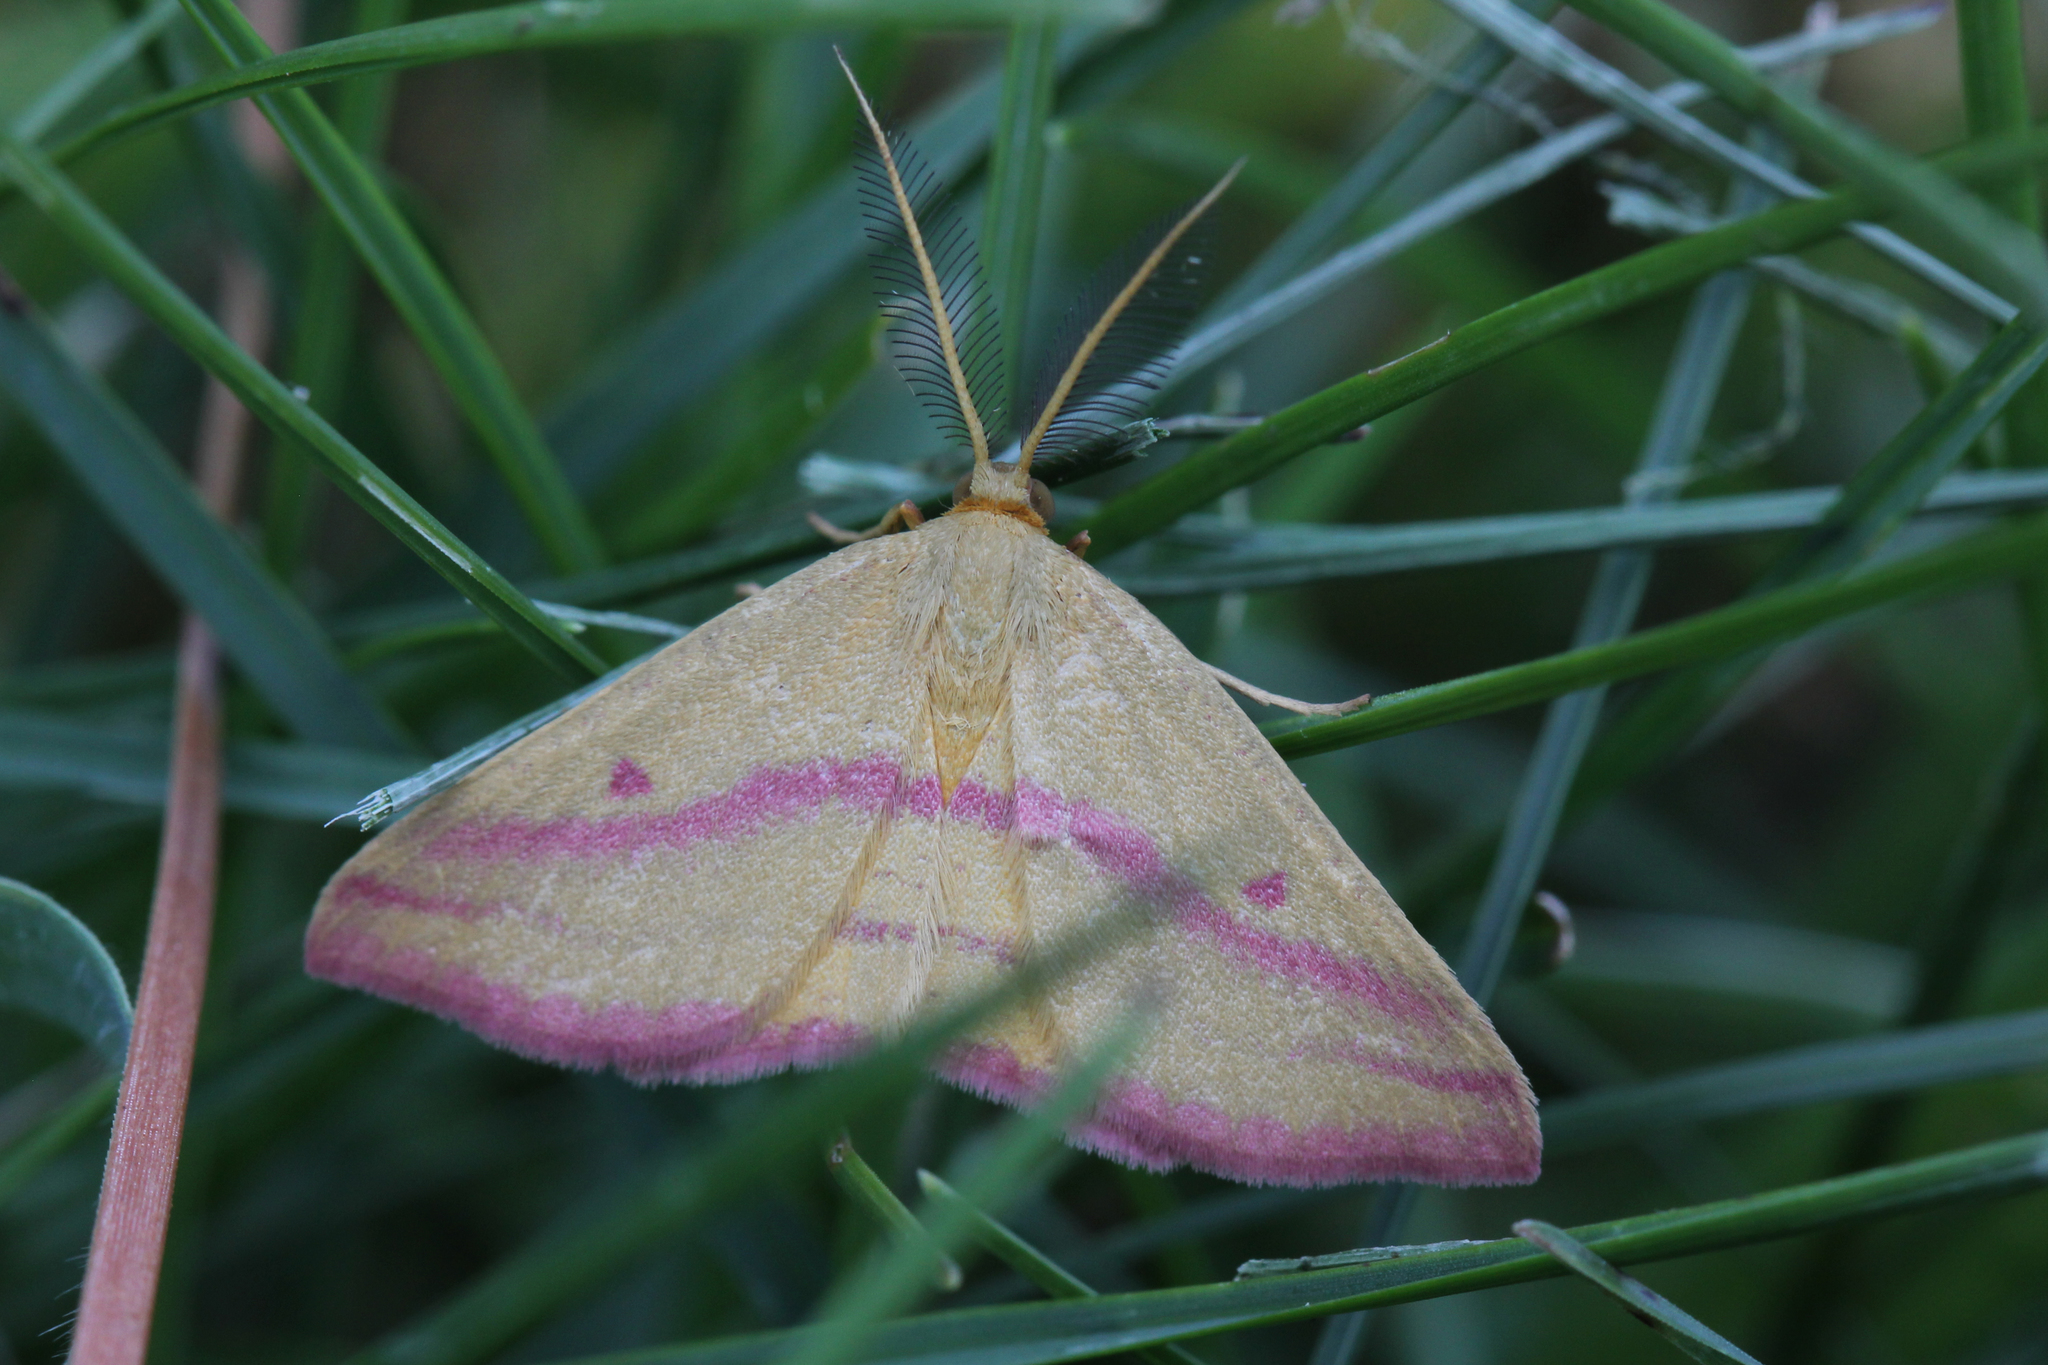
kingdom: Animalia
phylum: Arthropoda
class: Insecta
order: Lepidoptera
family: Geometridae
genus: Haematopis
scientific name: Haematopis grataria
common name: Chickweed geometer
